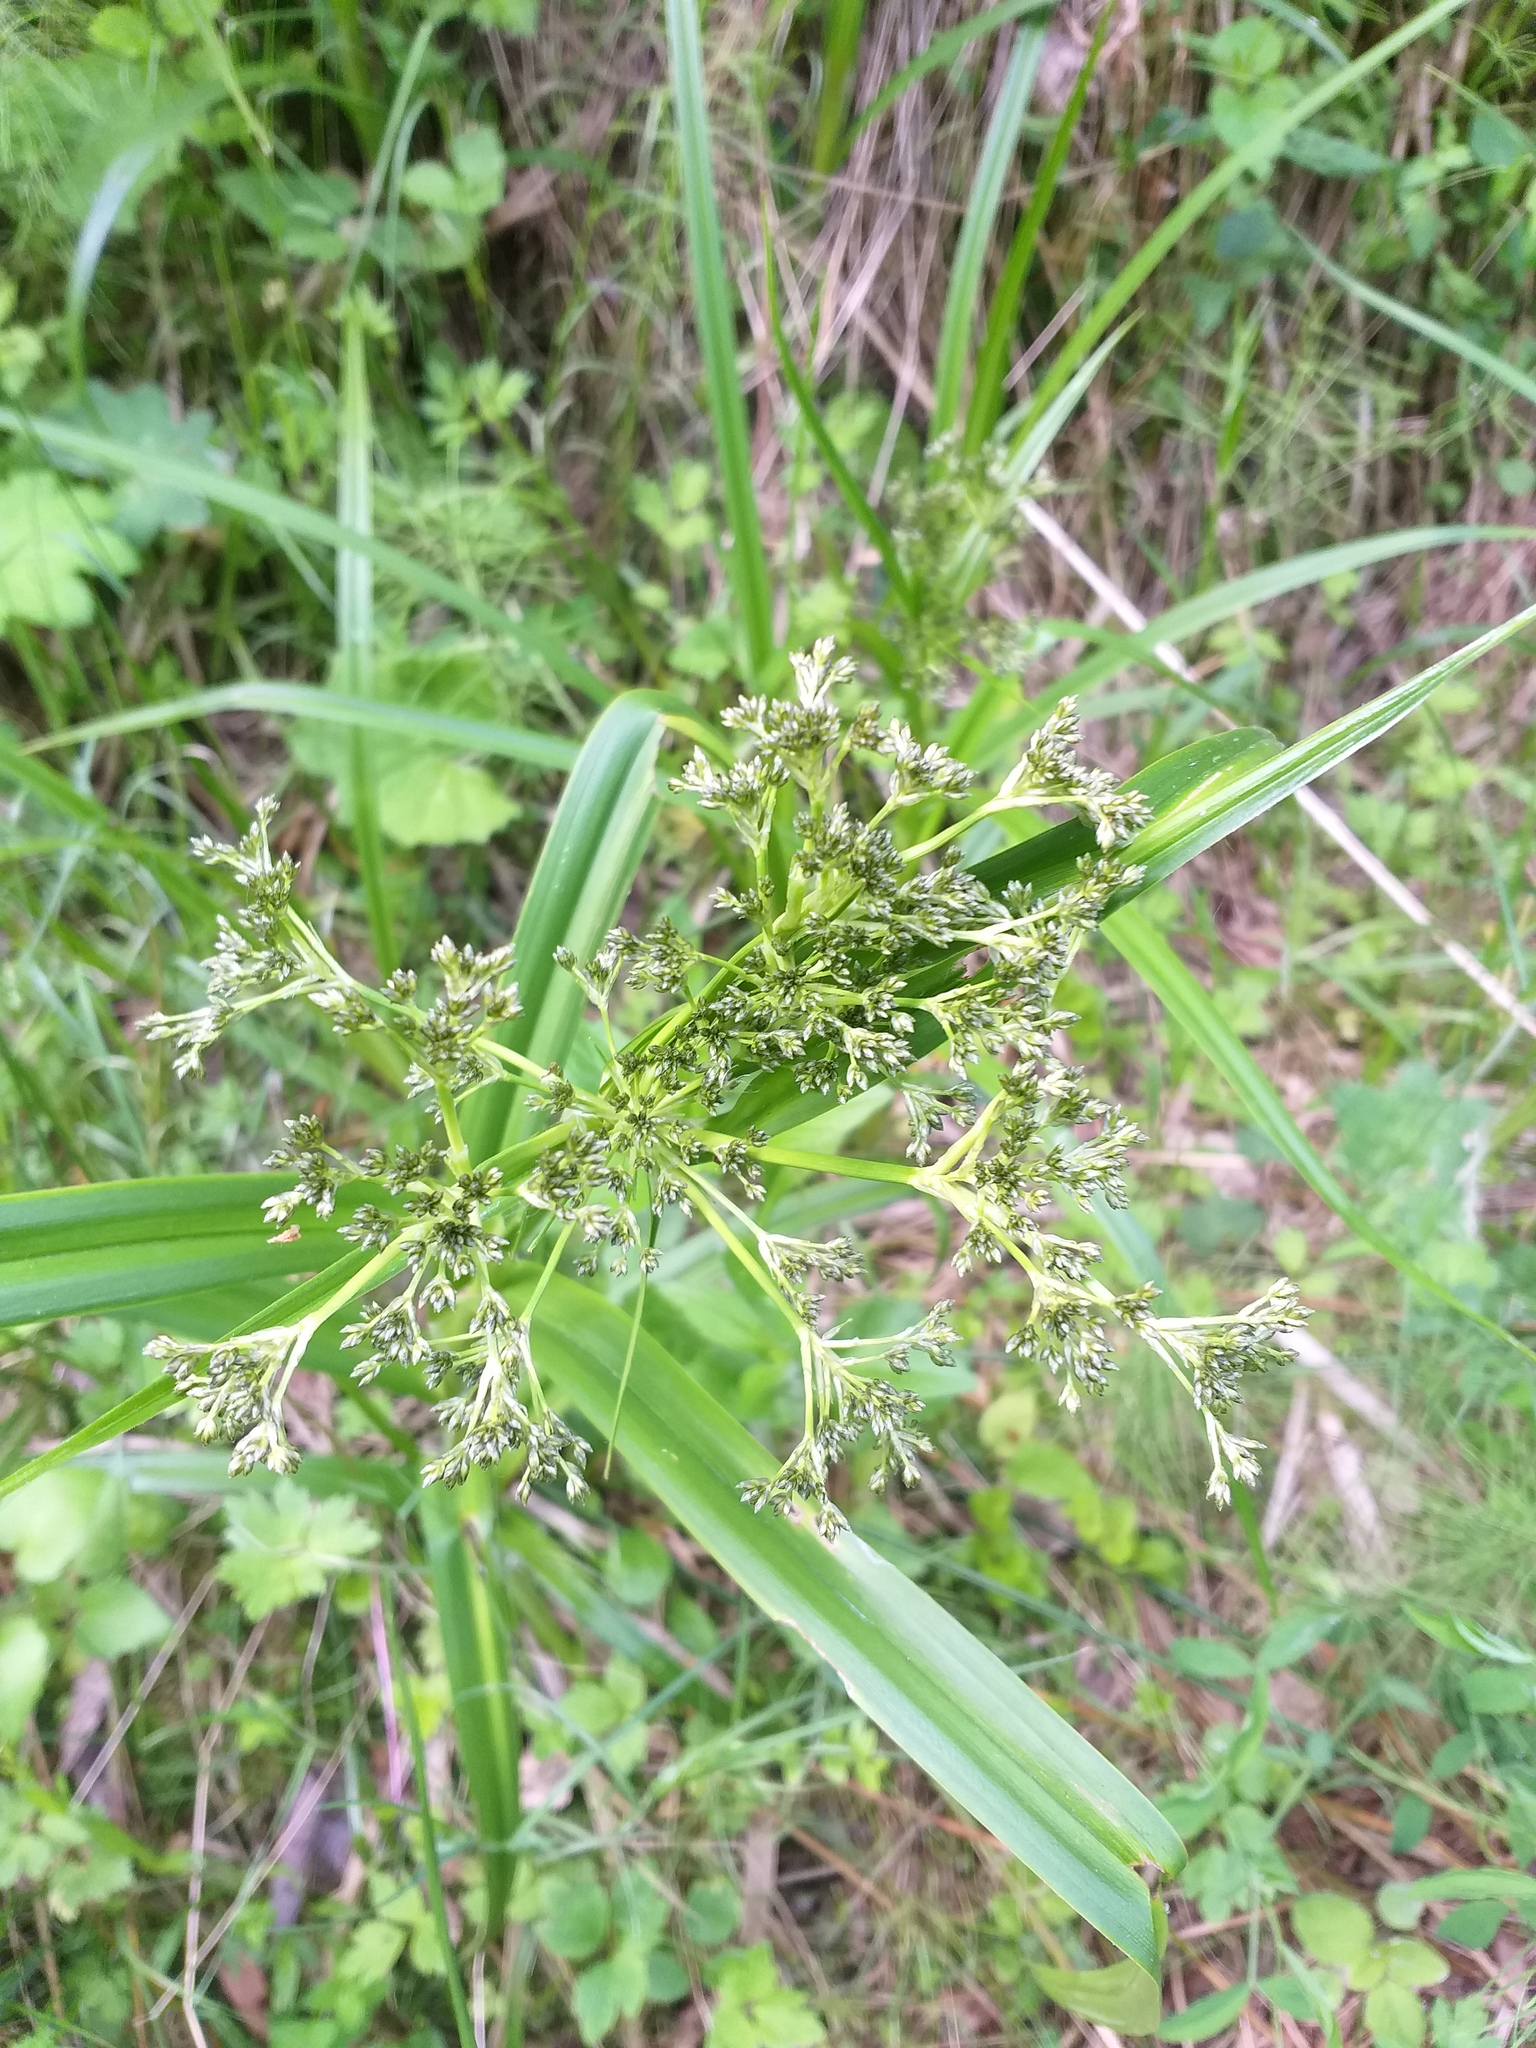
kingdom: Plantae
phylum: Tracheophyta
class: Liliopsida
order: Poales
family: Cyperaceae
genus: Scirpus
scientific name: Scirpus sylvaticus
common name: Wood club-rush
